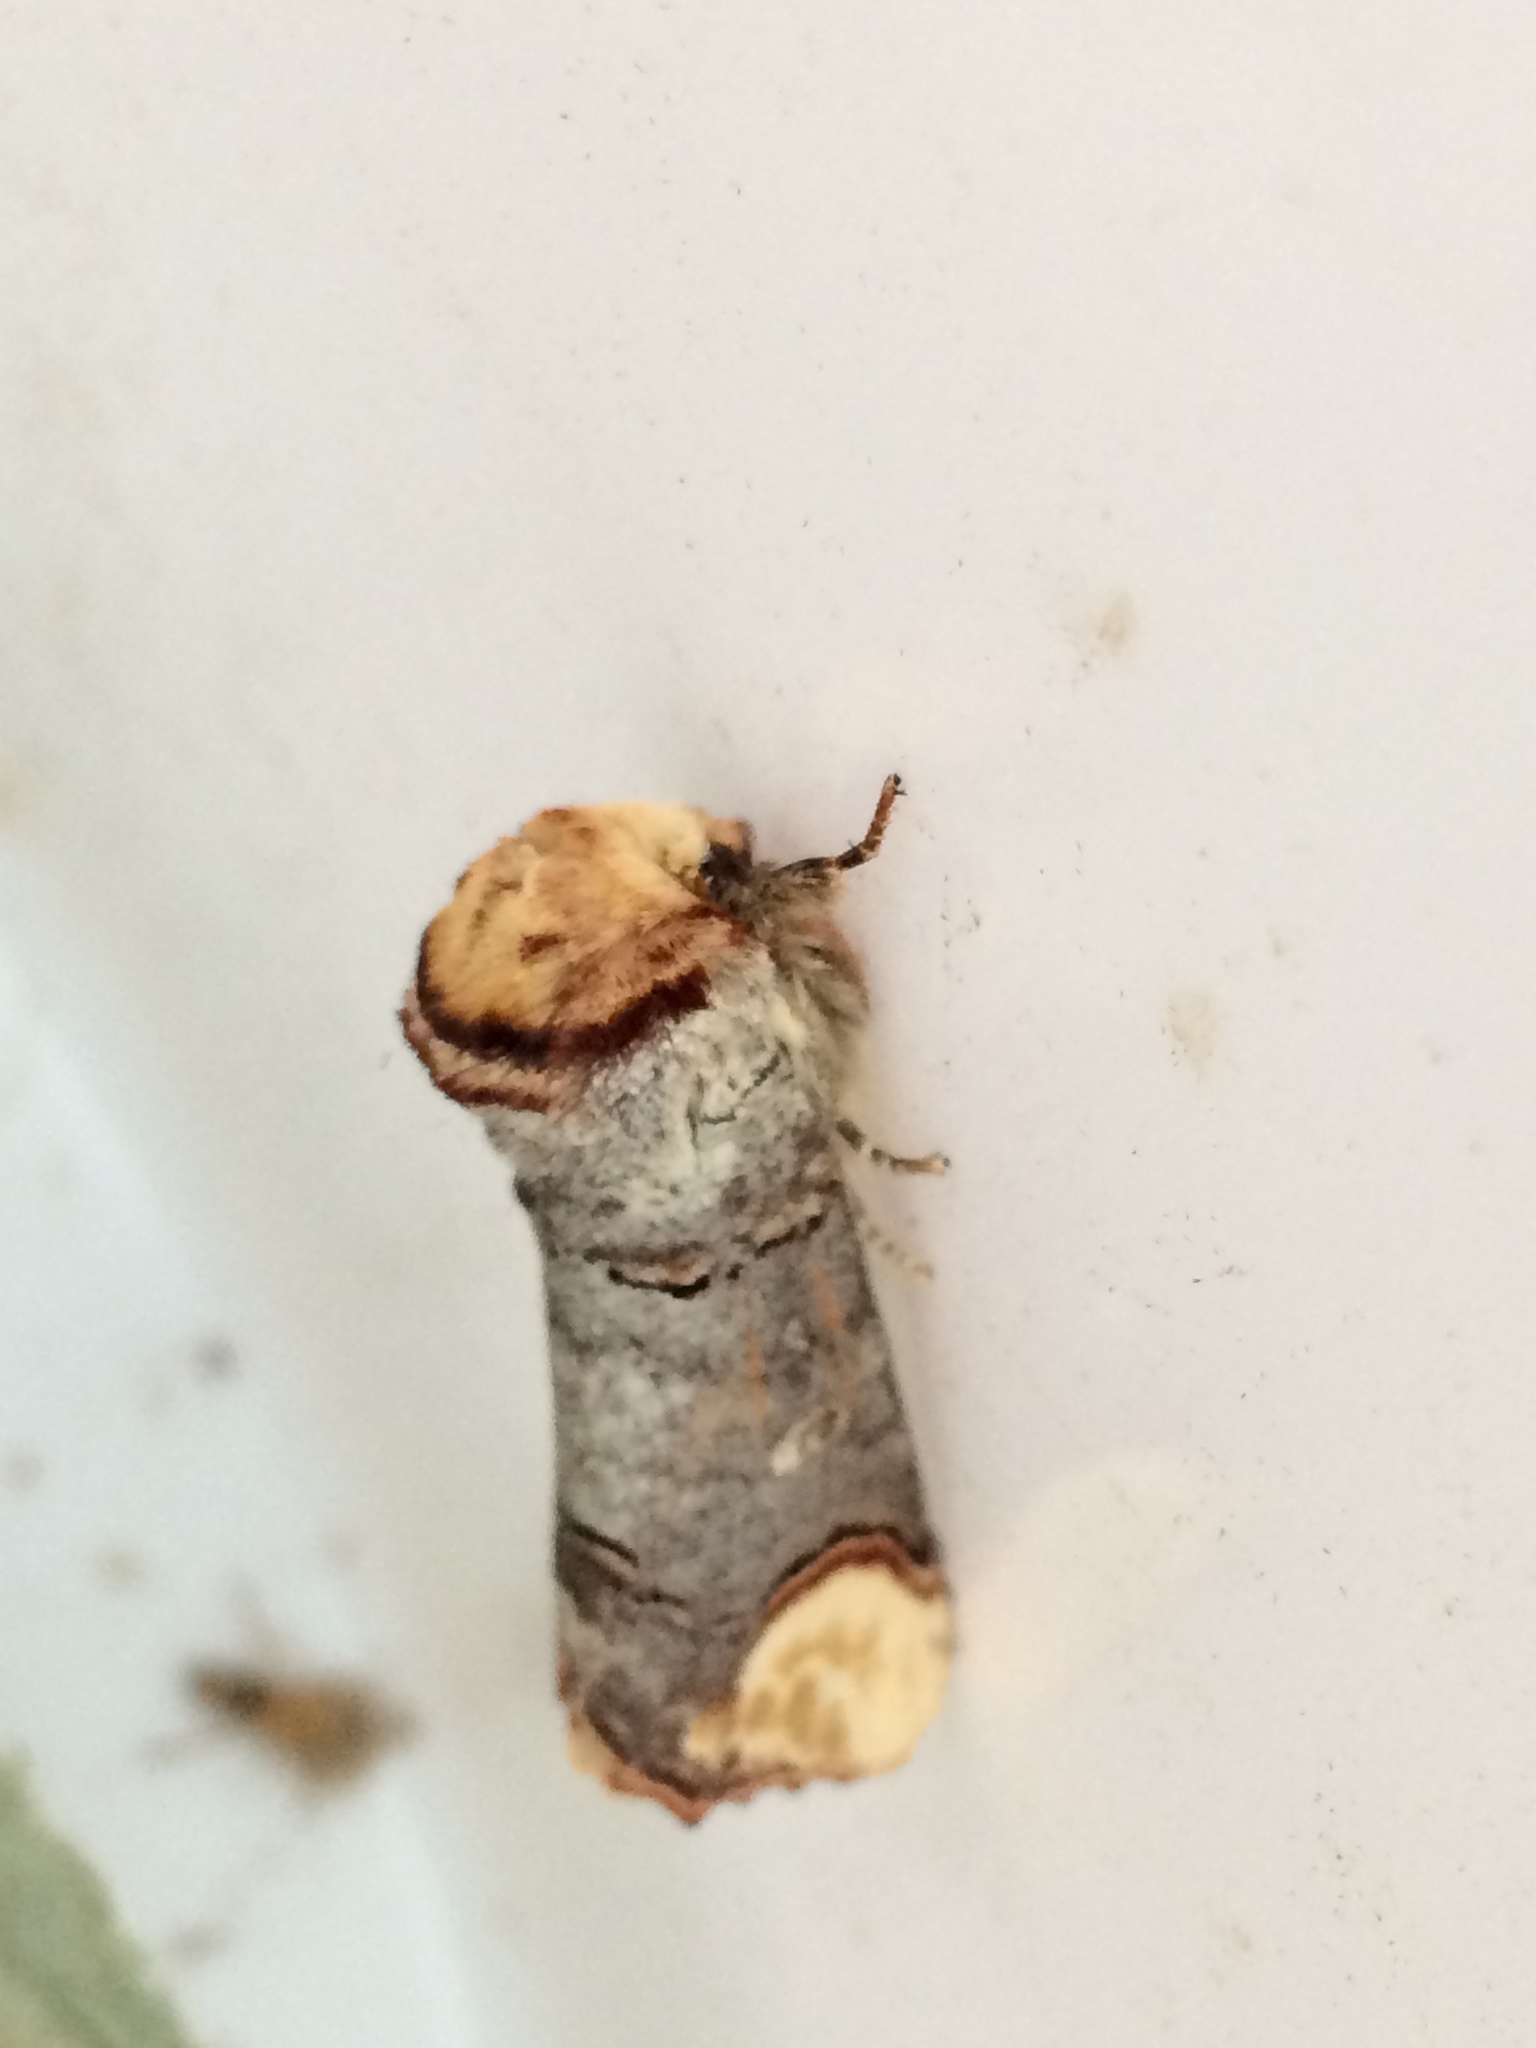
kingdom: Animalia
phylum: Arthropoda
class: Insecta
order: Lepidoptera
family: Notodontidae
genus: Phalera
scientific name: Phalera bucephala
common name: Buff-tip
